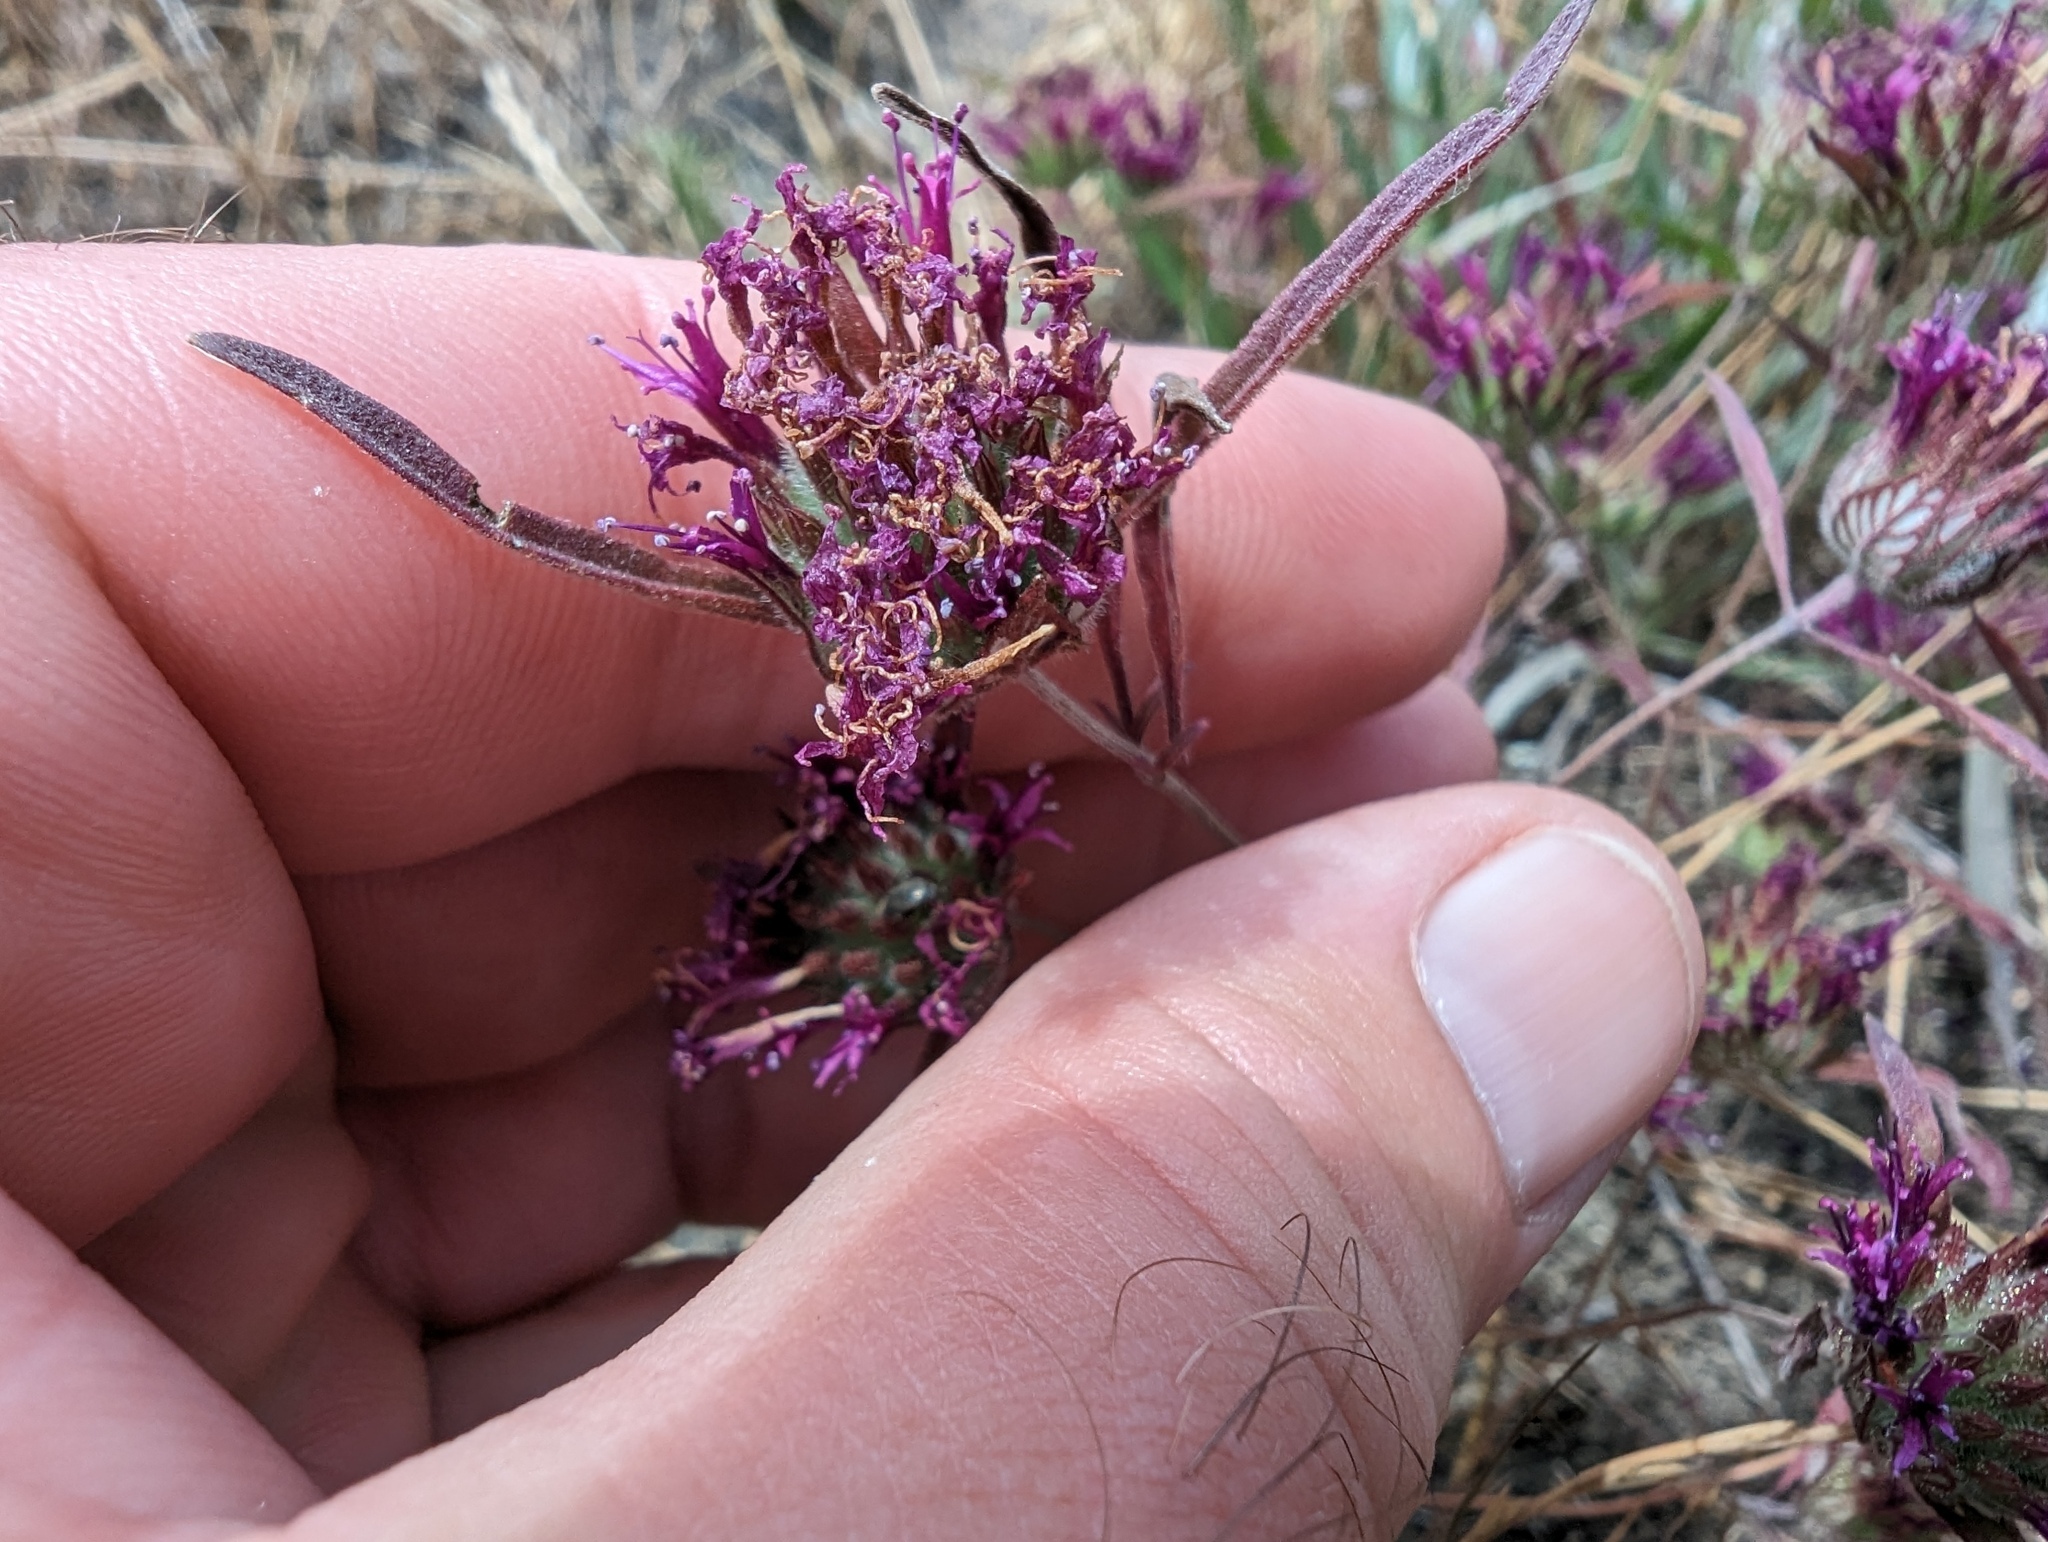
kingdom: Plantae
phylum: Tracheophyta
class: Magnoliopsida
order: Lamiales
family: Lamiaceae
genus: Monardella
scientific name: Monardella douglasii
